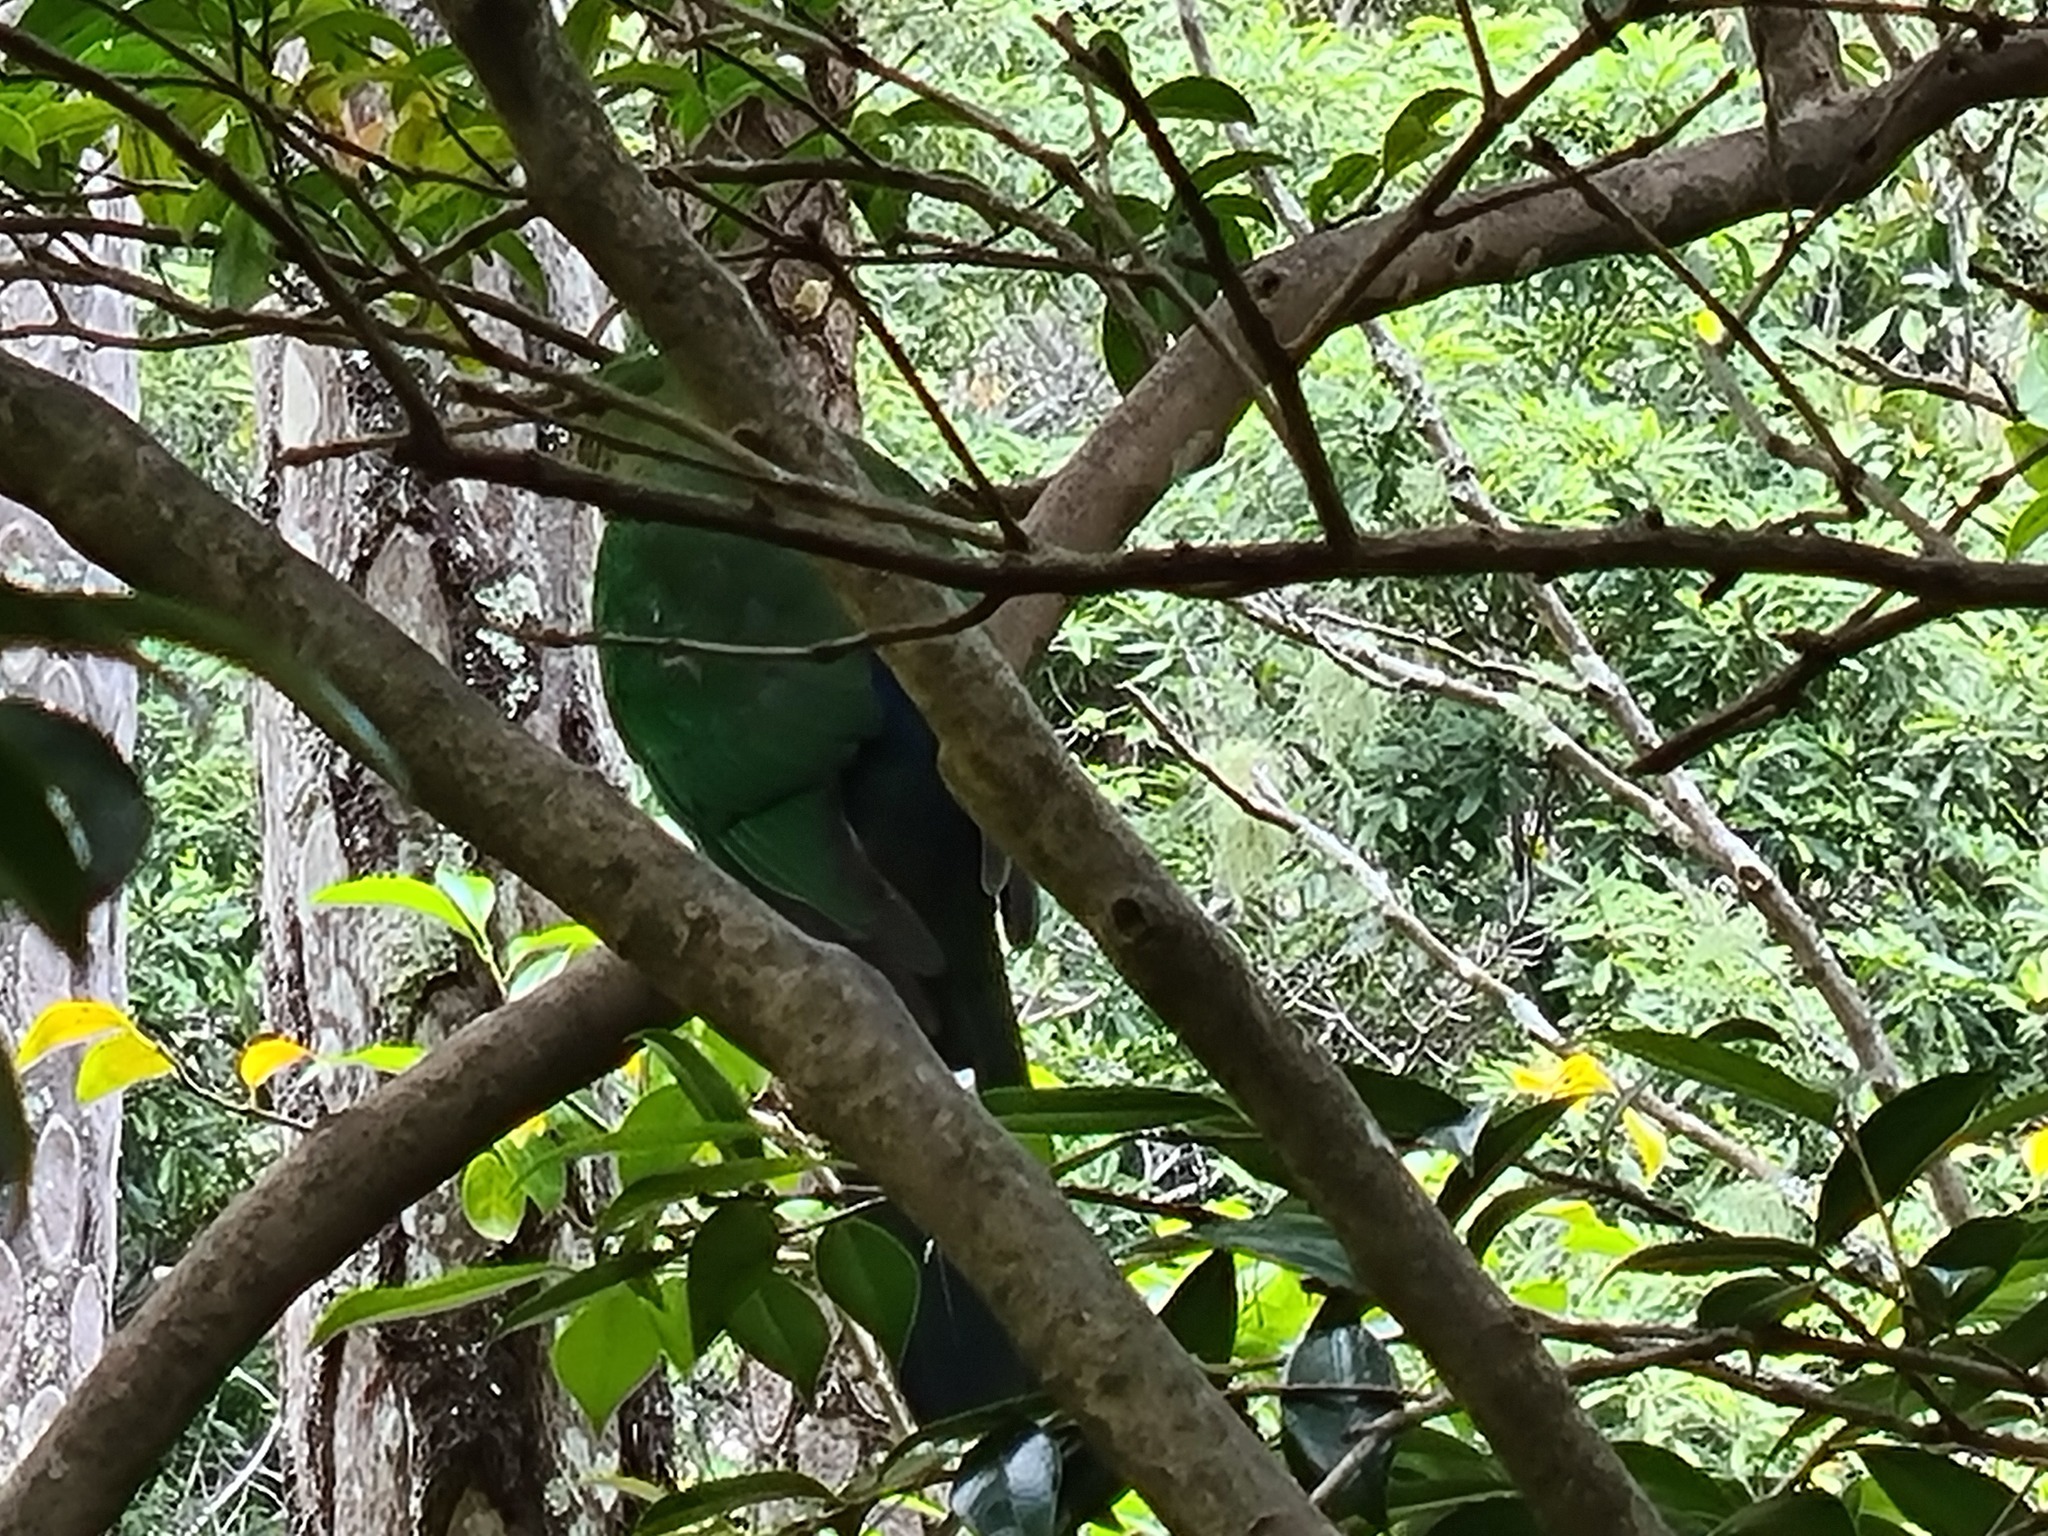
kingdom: Animalia
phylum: Chordata
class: Aves
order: Psittaciformes
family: Psittacidae
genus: Alisterus
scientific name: Alisterus scapularis
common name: Australian king parrot
